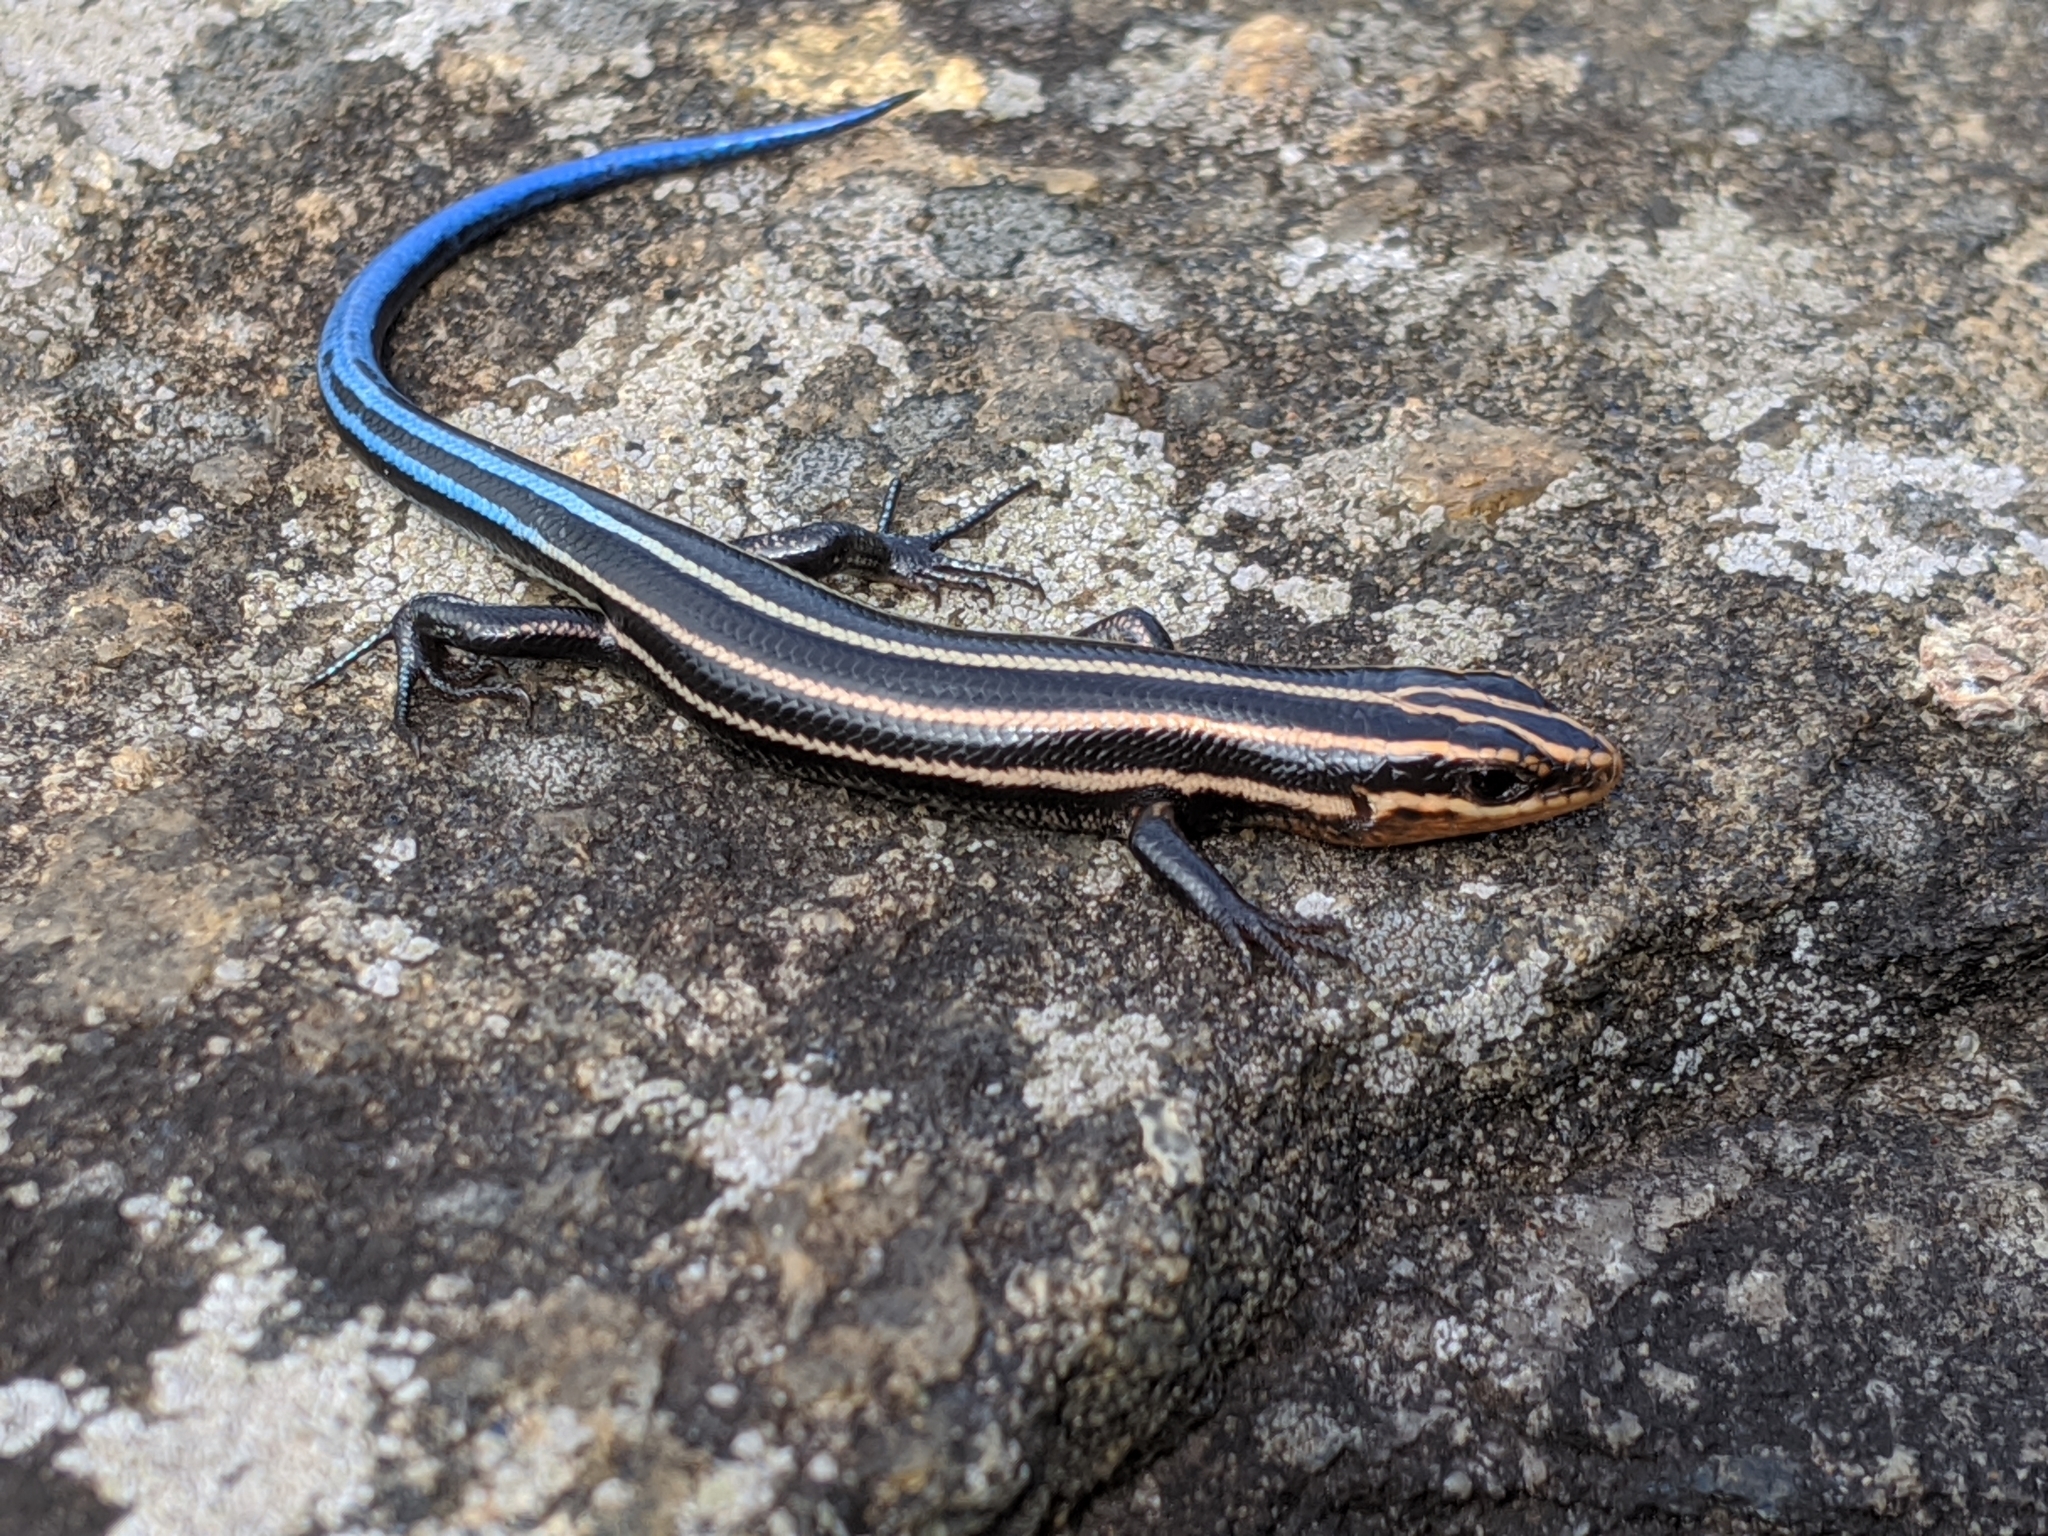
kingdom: Animalia
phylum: Chordata
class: Squamata
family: Scincidae
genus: Plestiodon
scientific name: Plestiodon fasciatus
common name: Five-lined skink
